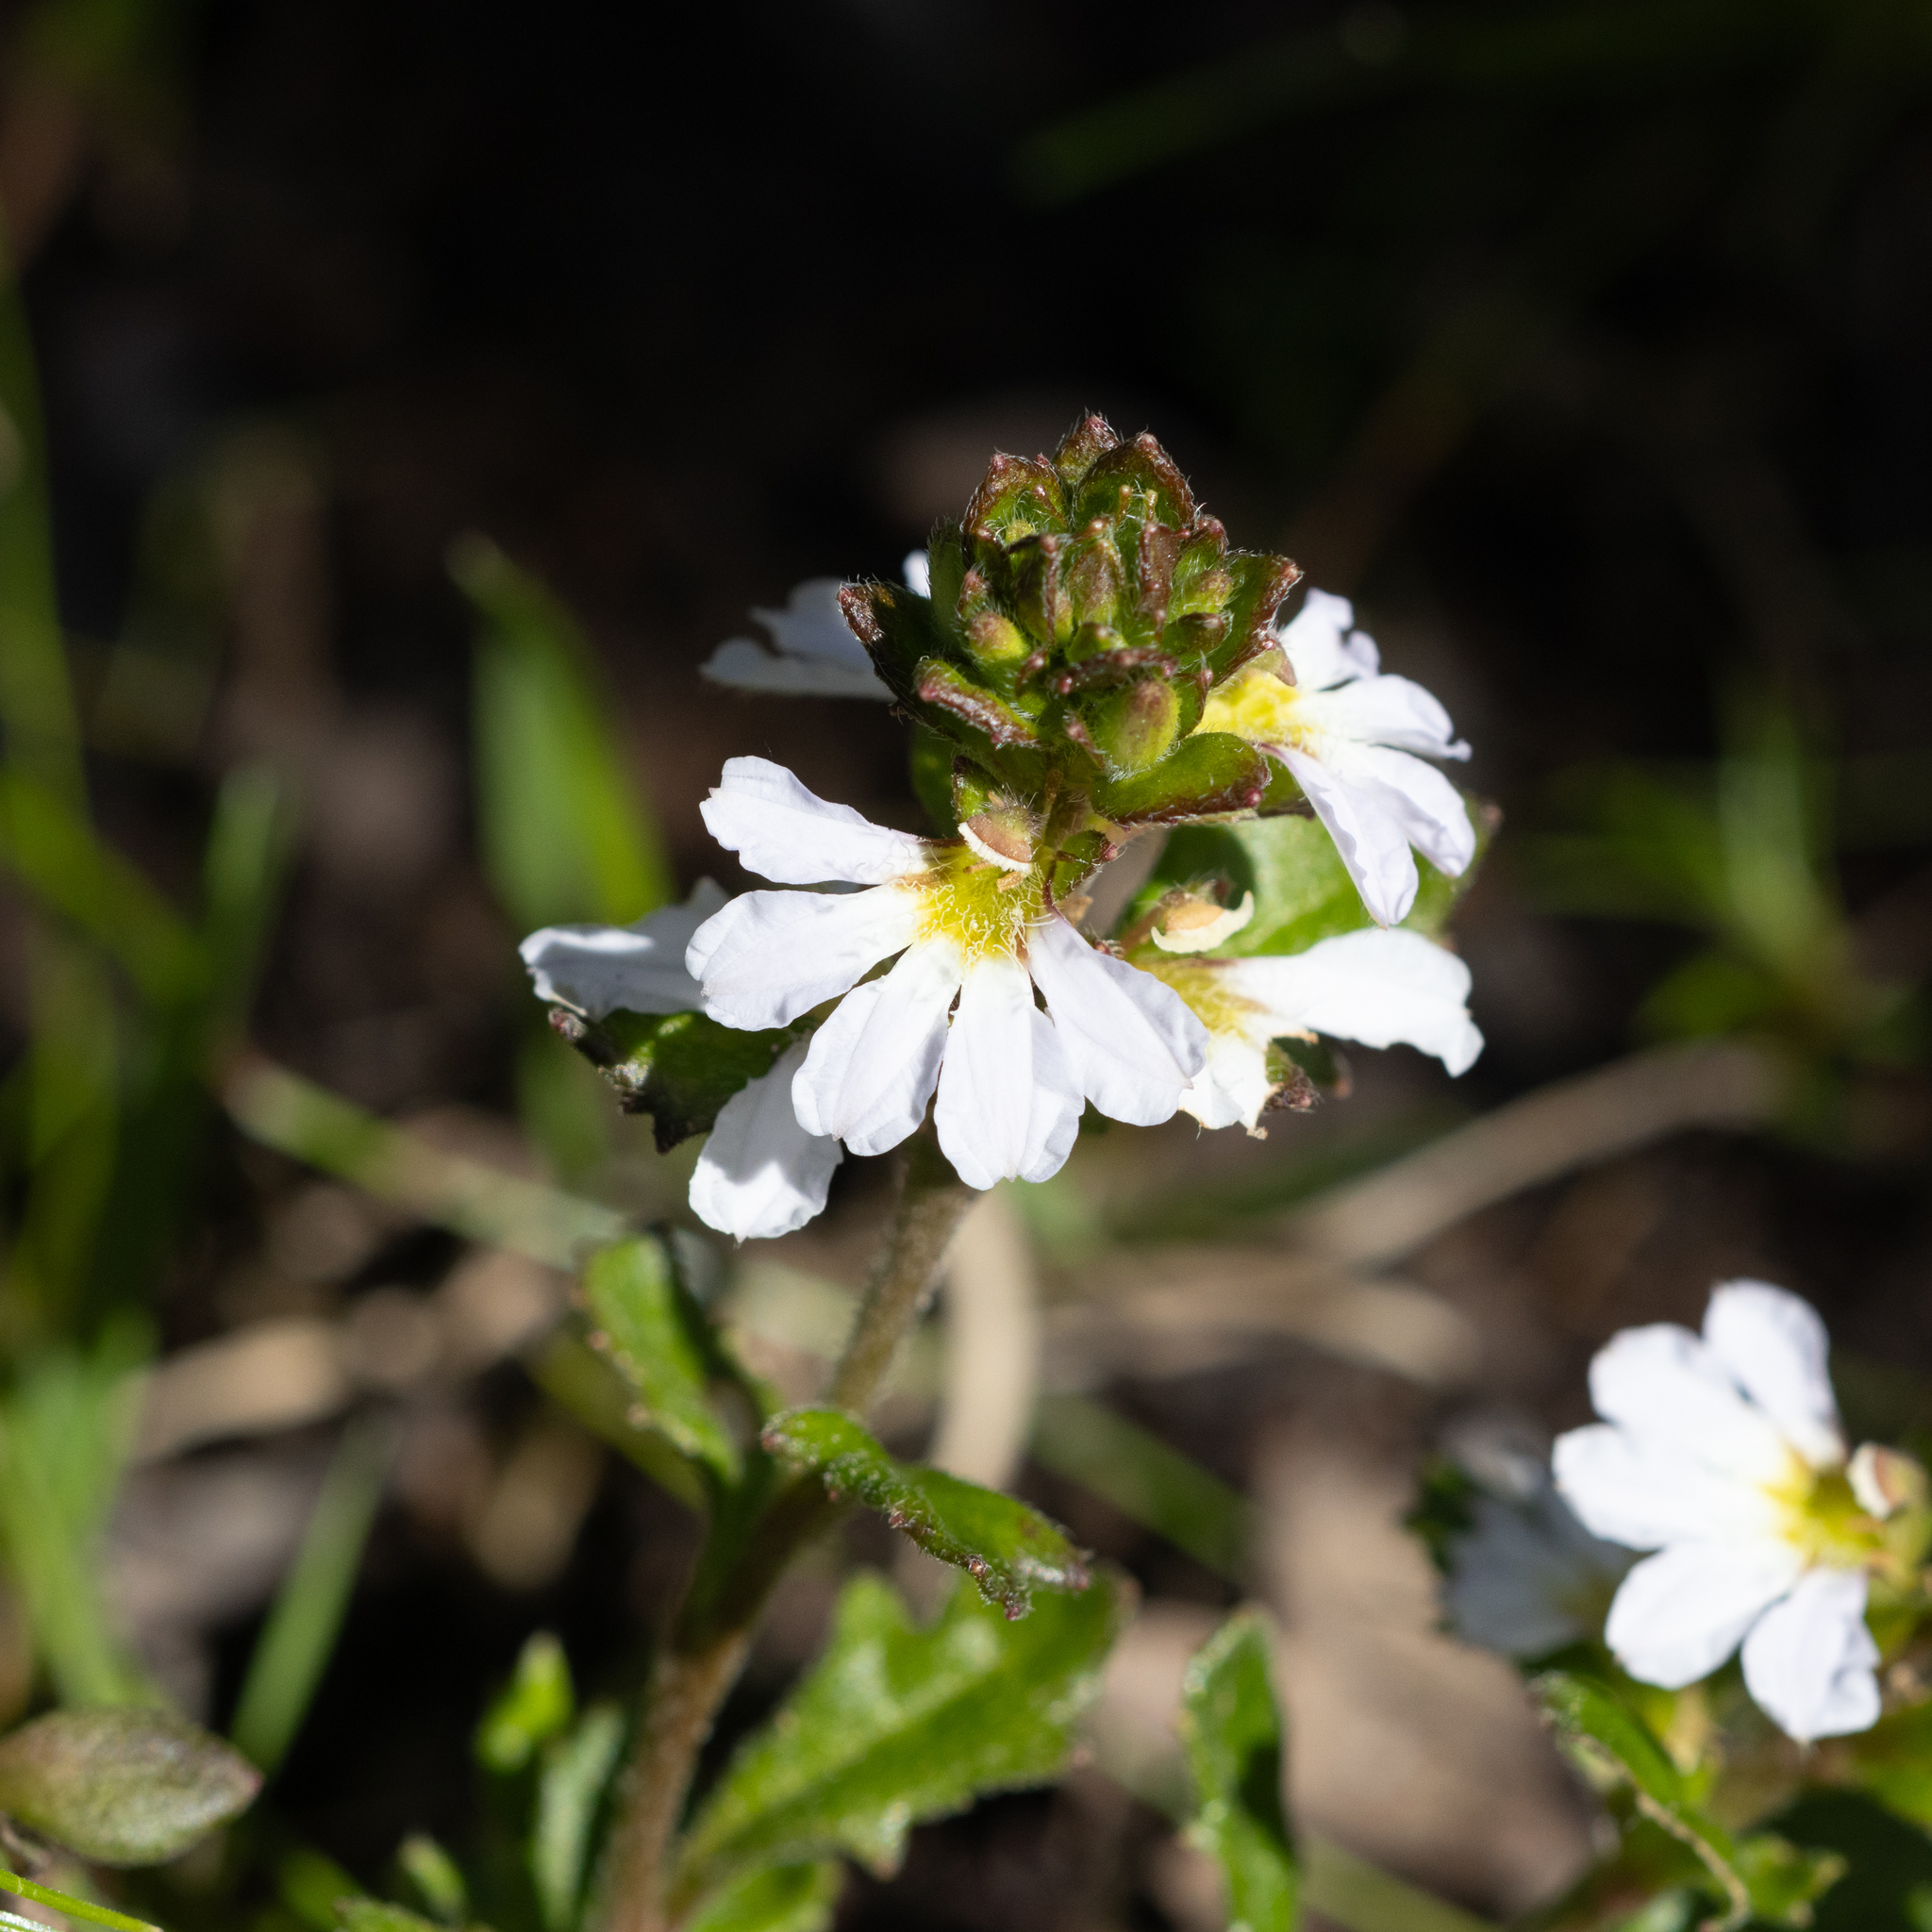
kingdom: Plantae
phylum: Tracheophyta
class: Magnoliopsida
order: Asterales
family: Goodeniaceae
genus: Scaevola
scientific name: Scaevola albida
